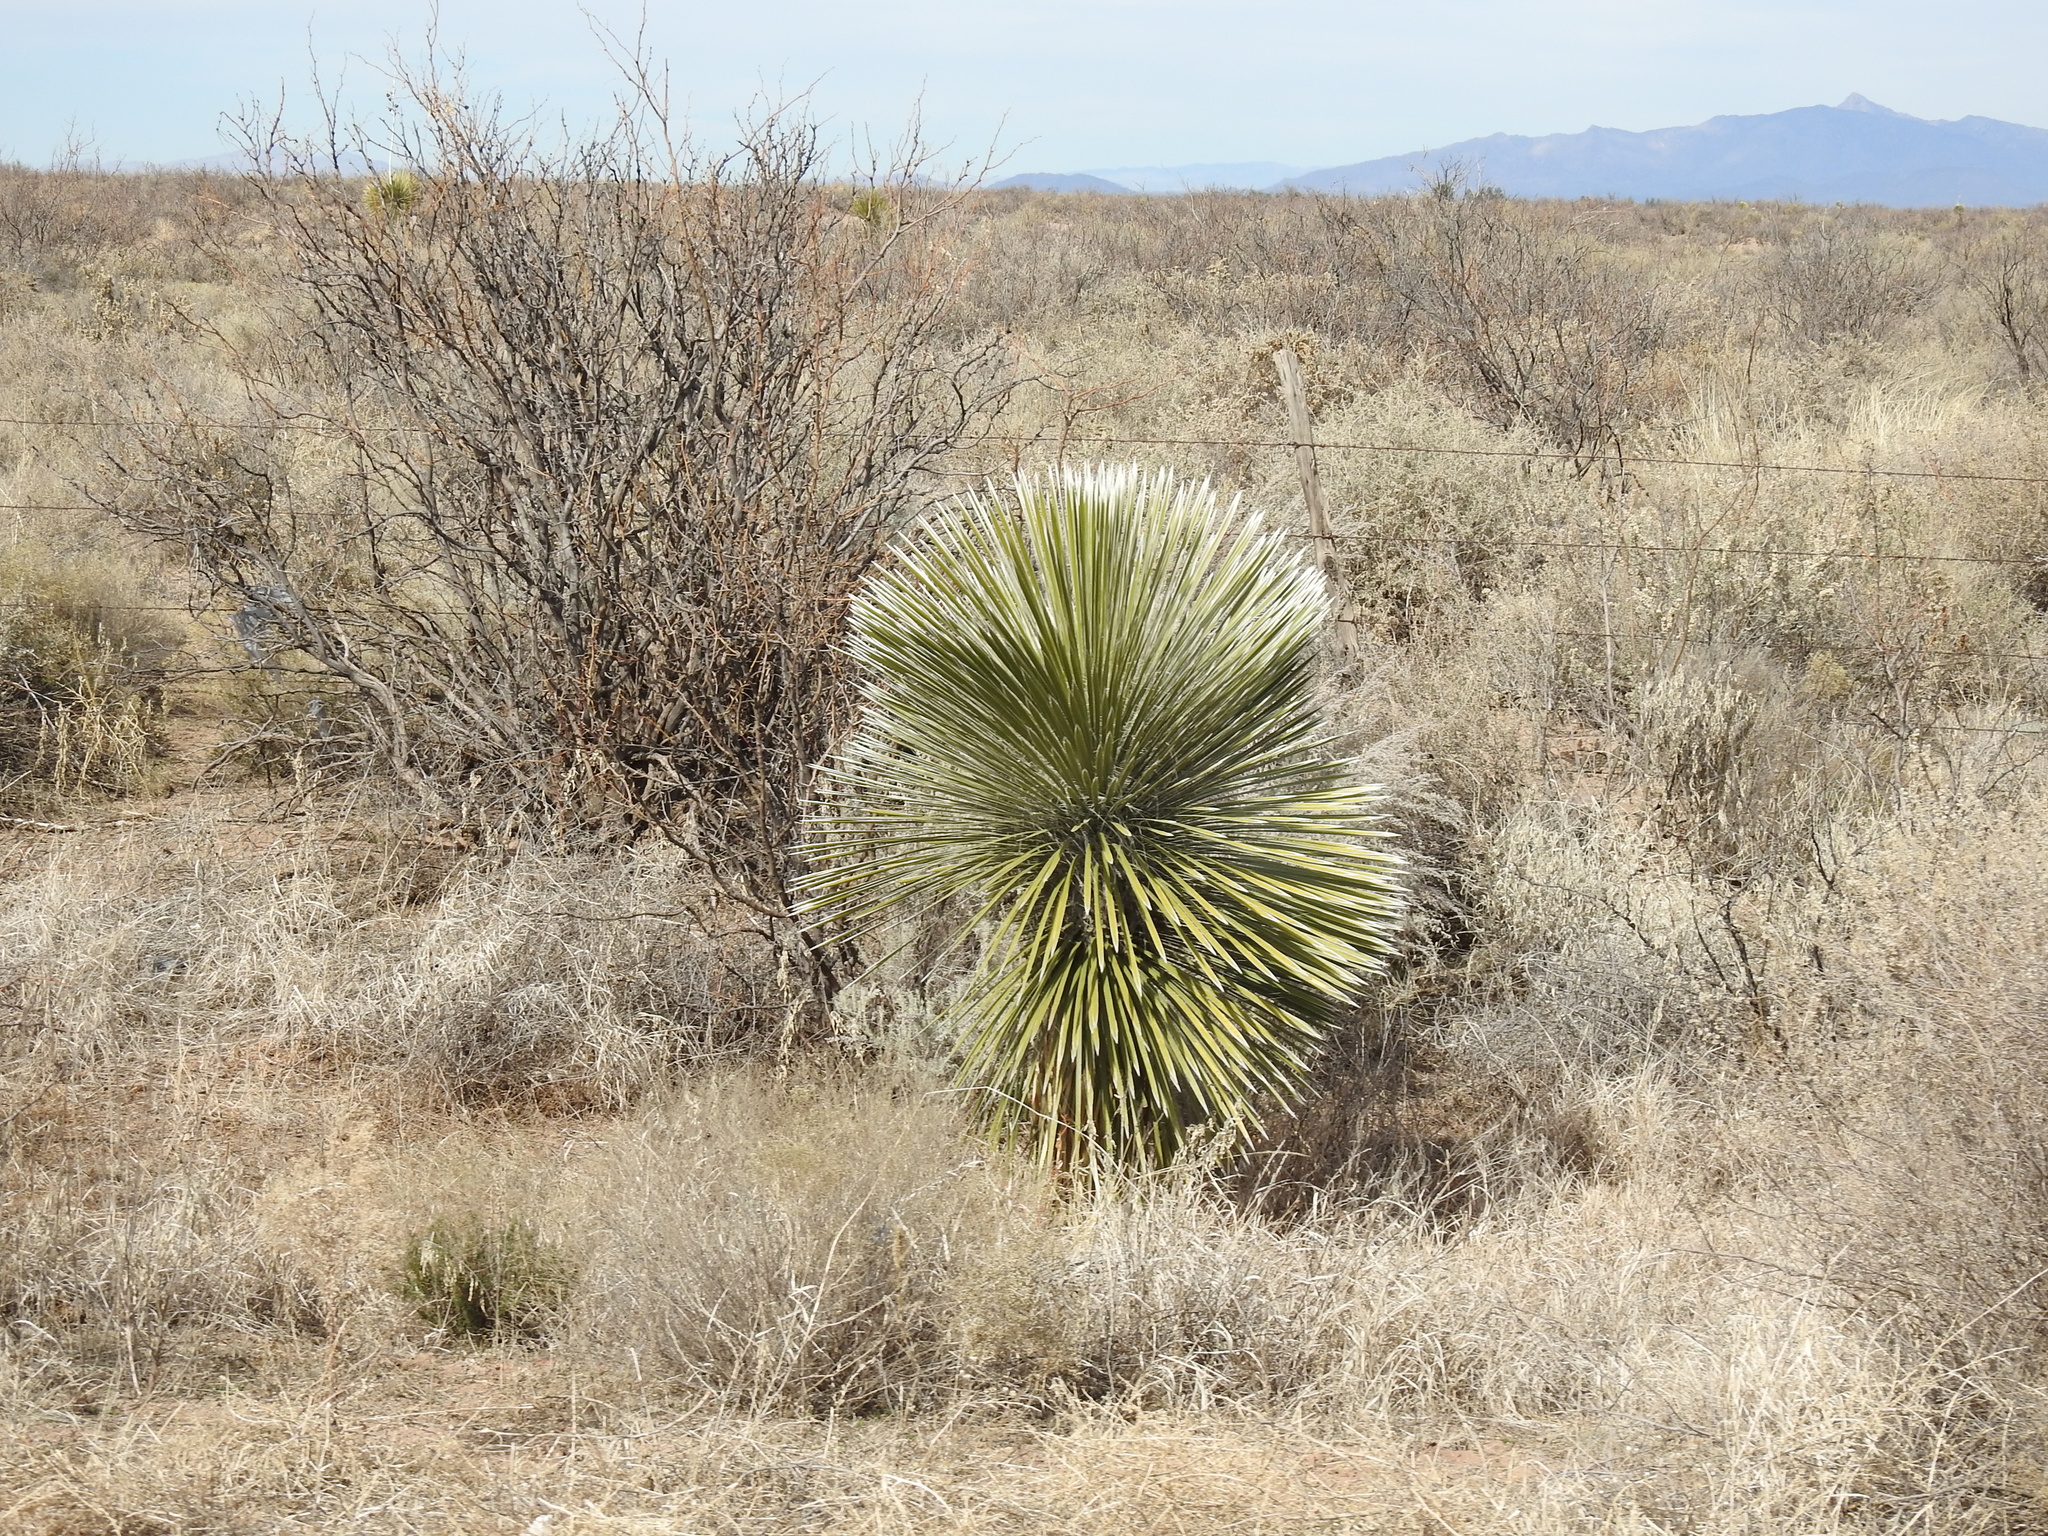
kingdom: Plantae
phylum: Tracheophyta
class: Liliopsida
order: Asparagales
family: Asparagaceae
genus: Yucca
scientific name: Yucca elata
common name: Palmella
